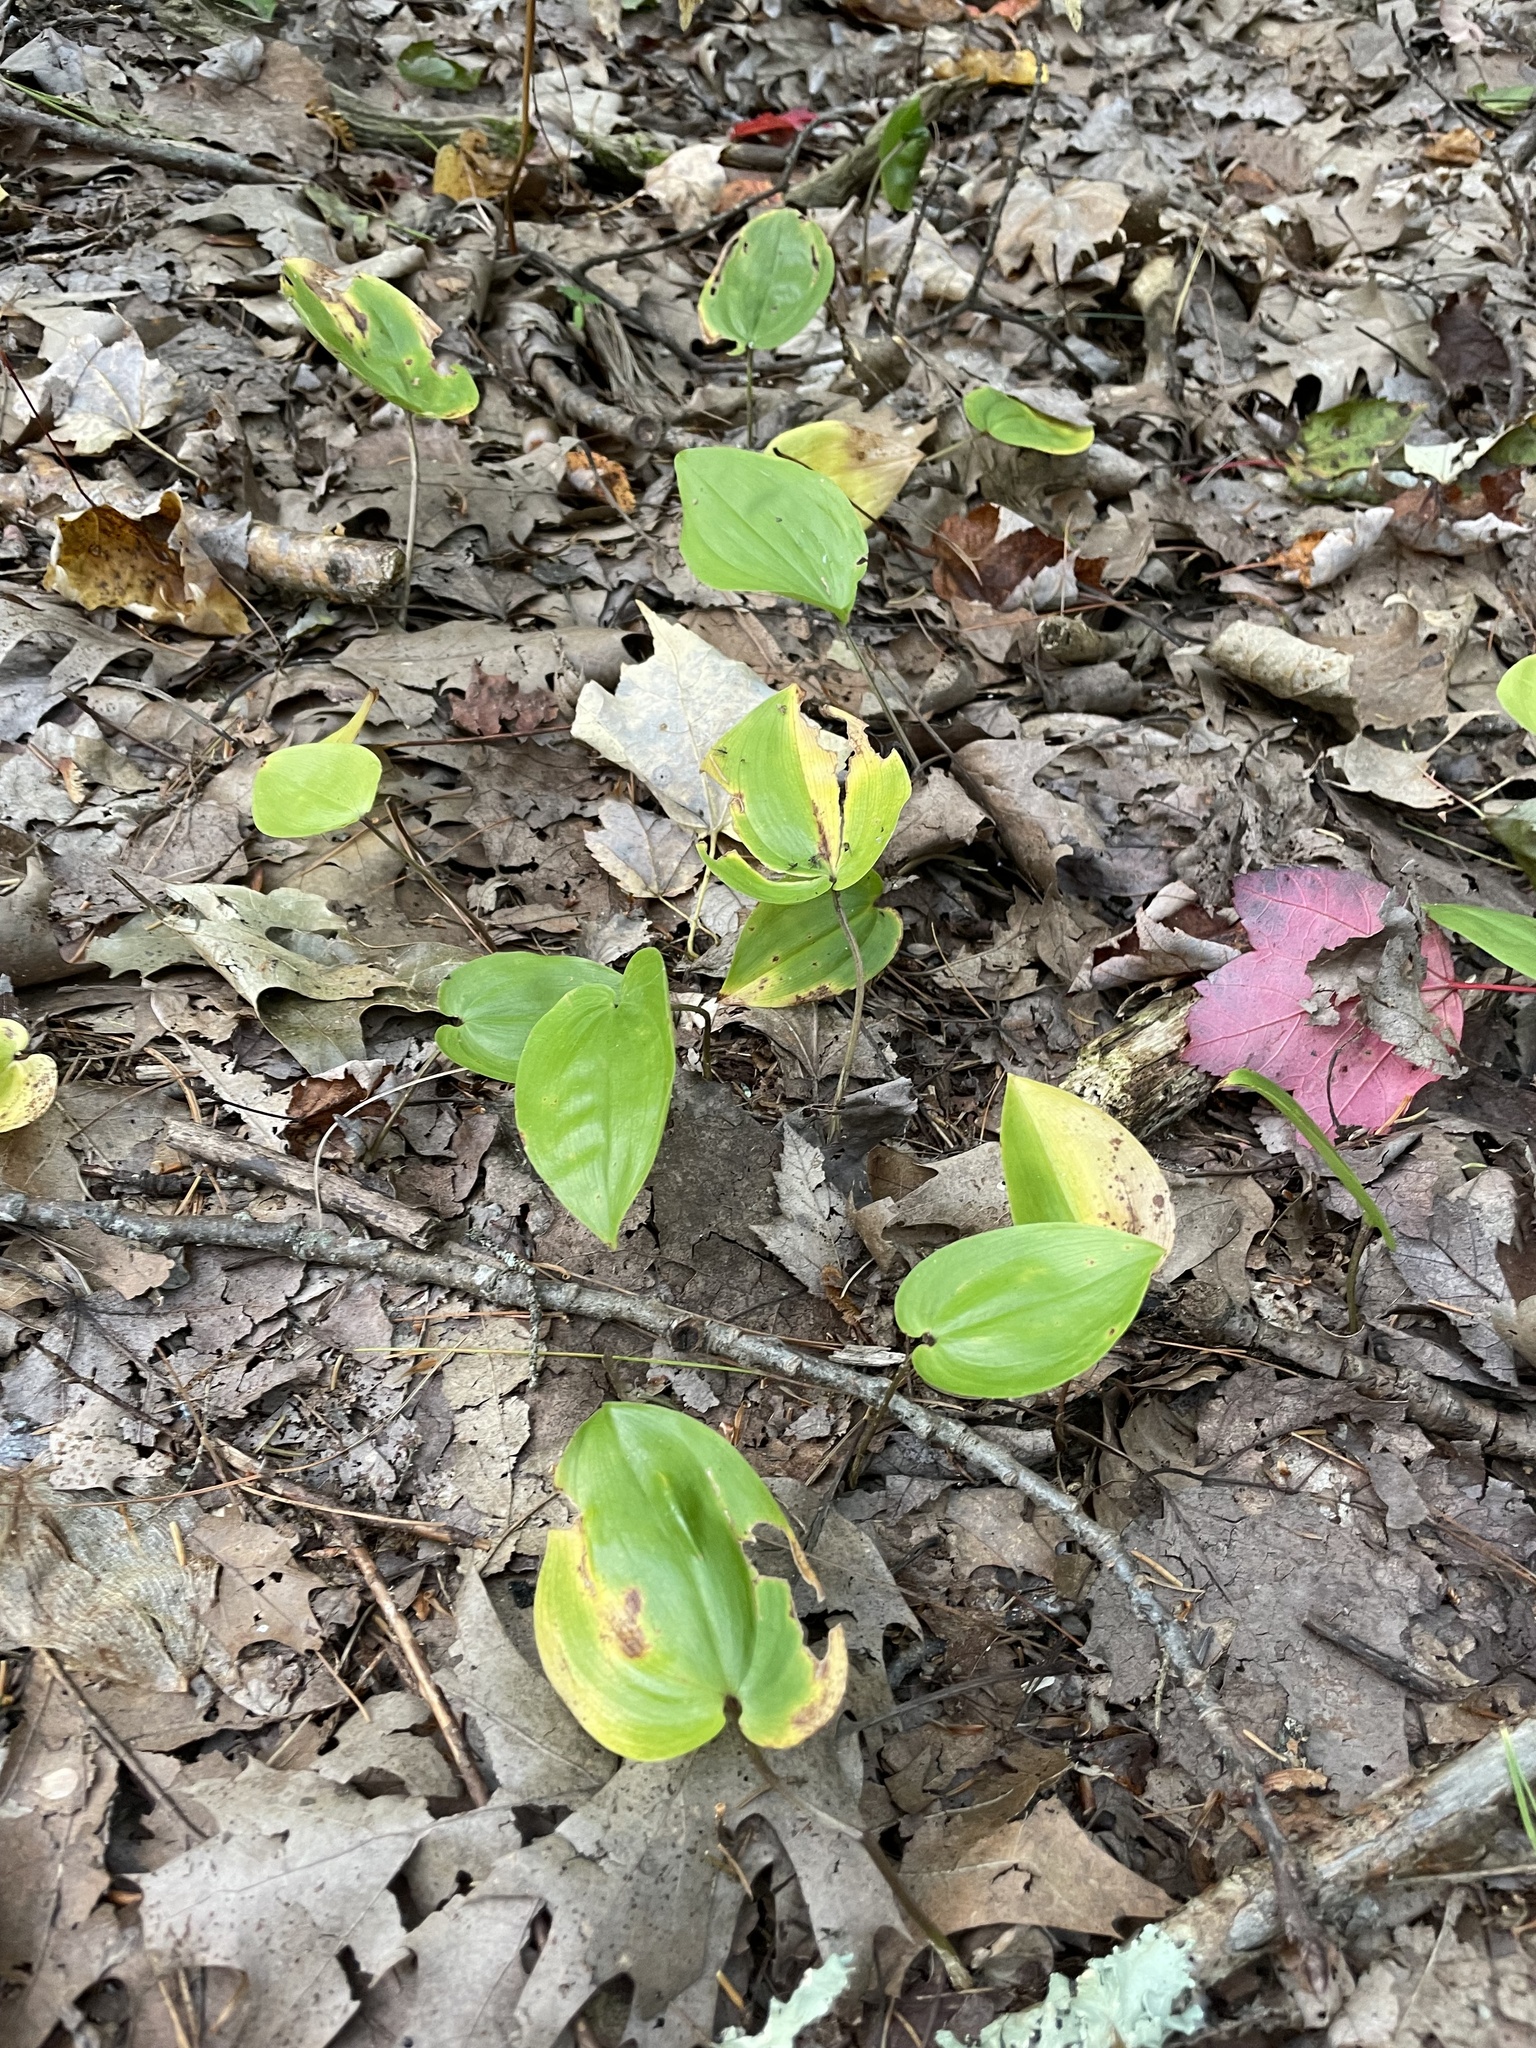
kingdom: Plantae
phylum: Tracheophyta
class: Liliopsida
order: Asparagales
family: Asparagaceae
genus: Maianthemum
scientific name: Maianthemum canadense
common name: False lily-of-the-valley
